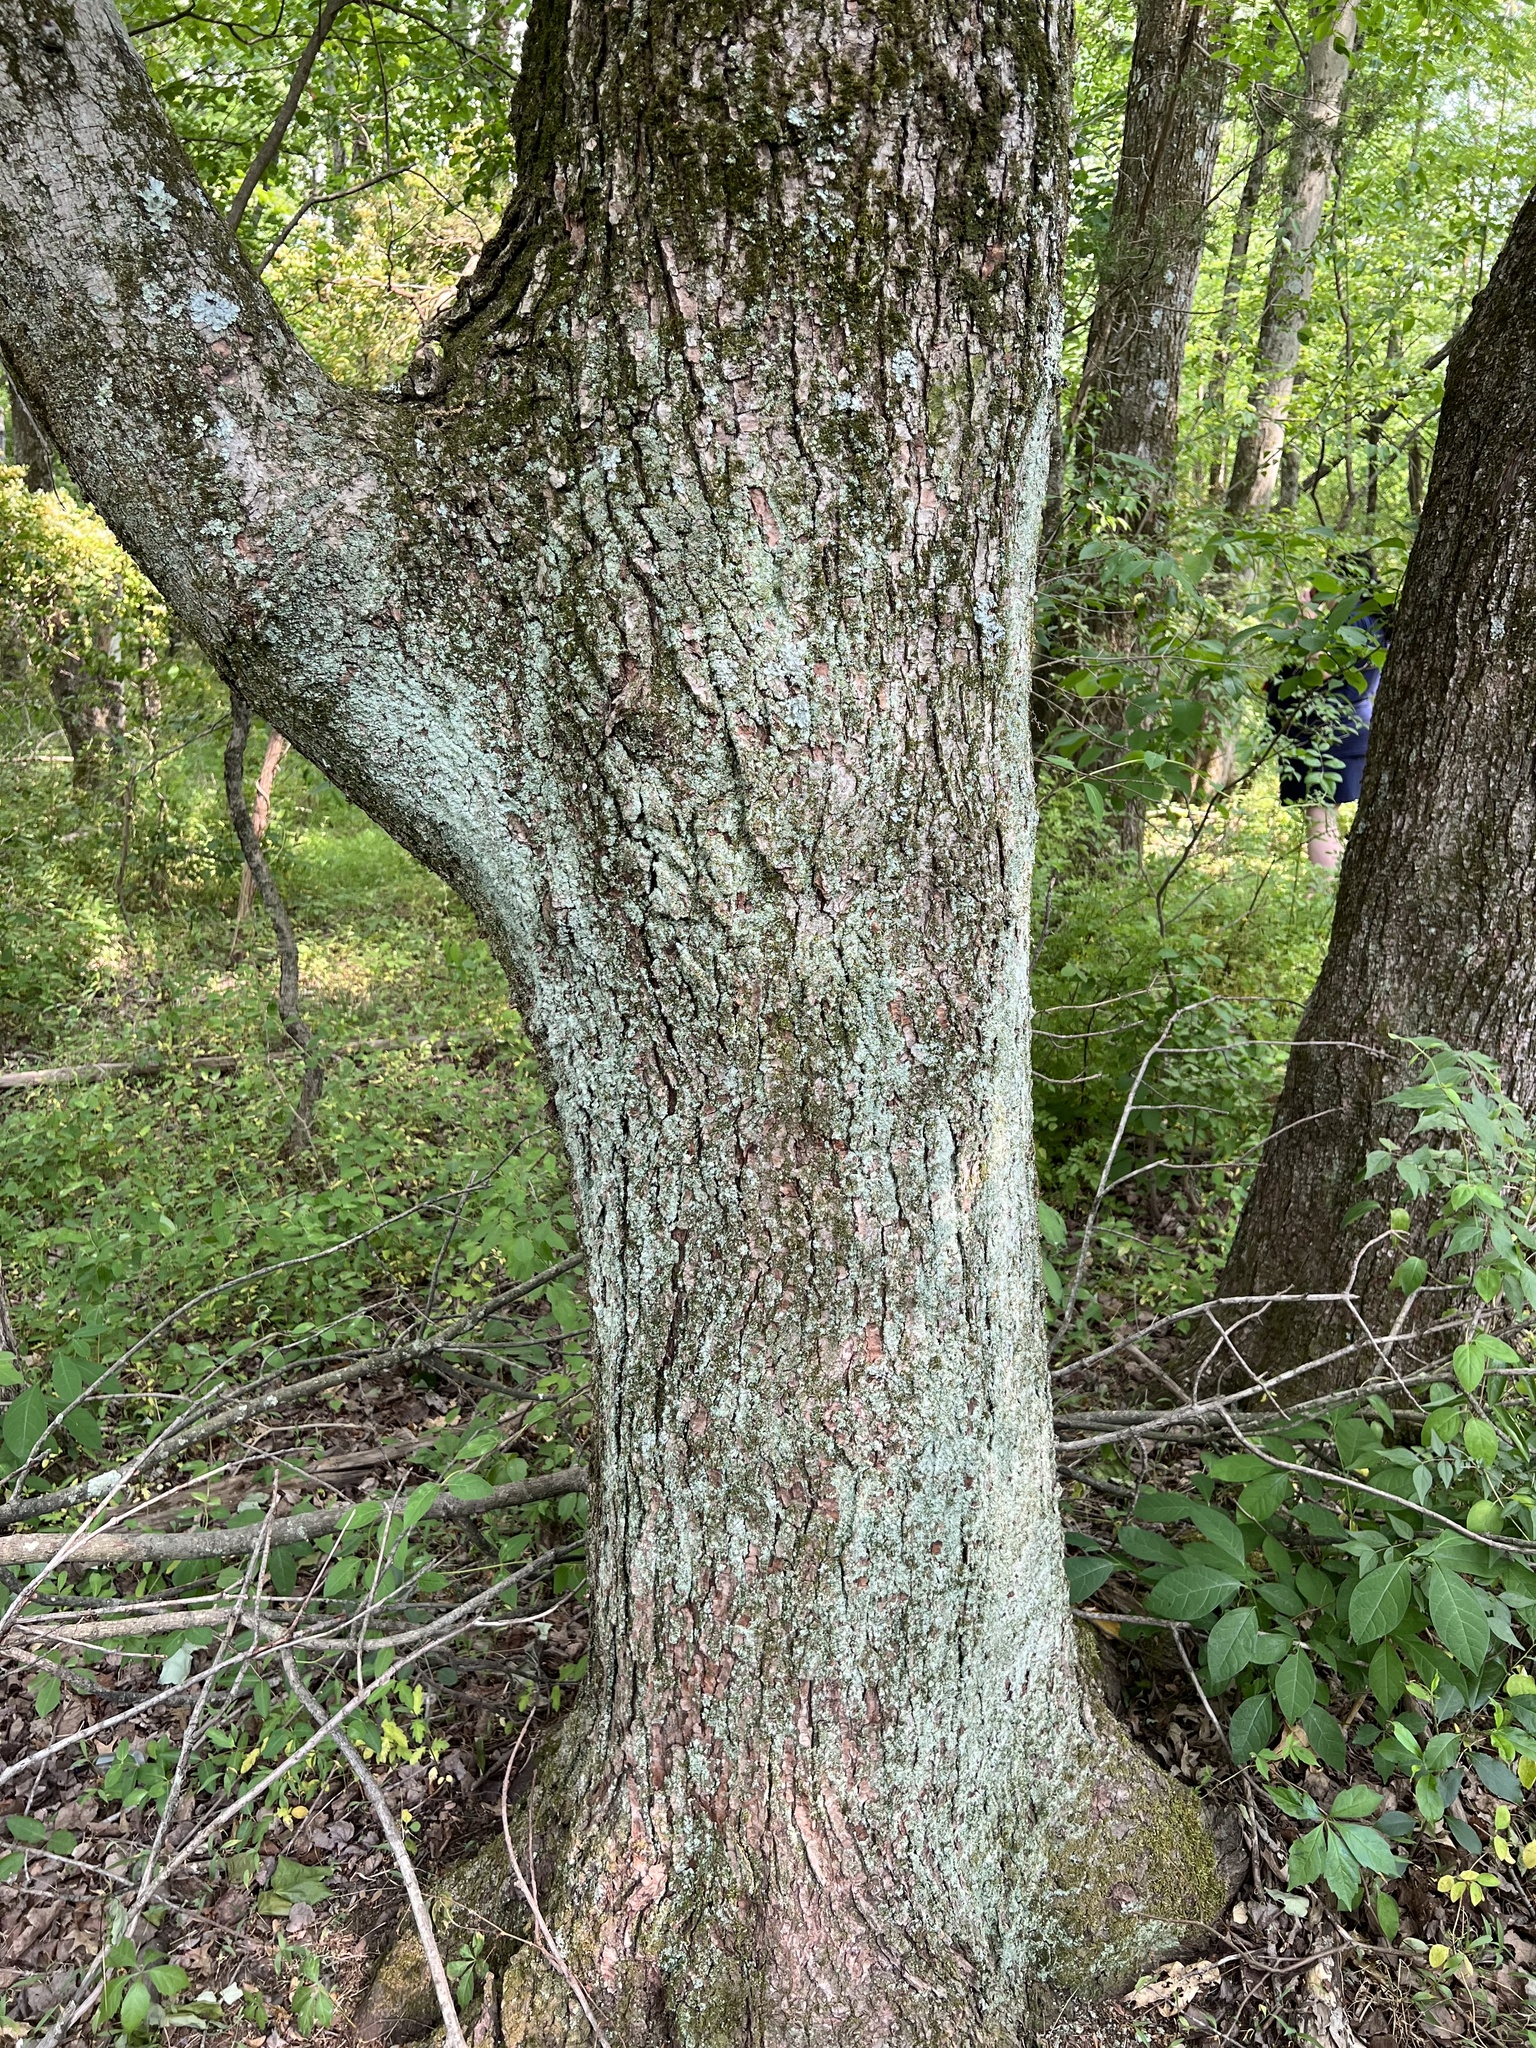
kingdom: Plantae
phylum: Tracheophyta
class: Magnoliopsida
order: Sapindales
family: Sapindaceae
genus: Acer
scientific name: Acer rubrum
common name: Red maple
